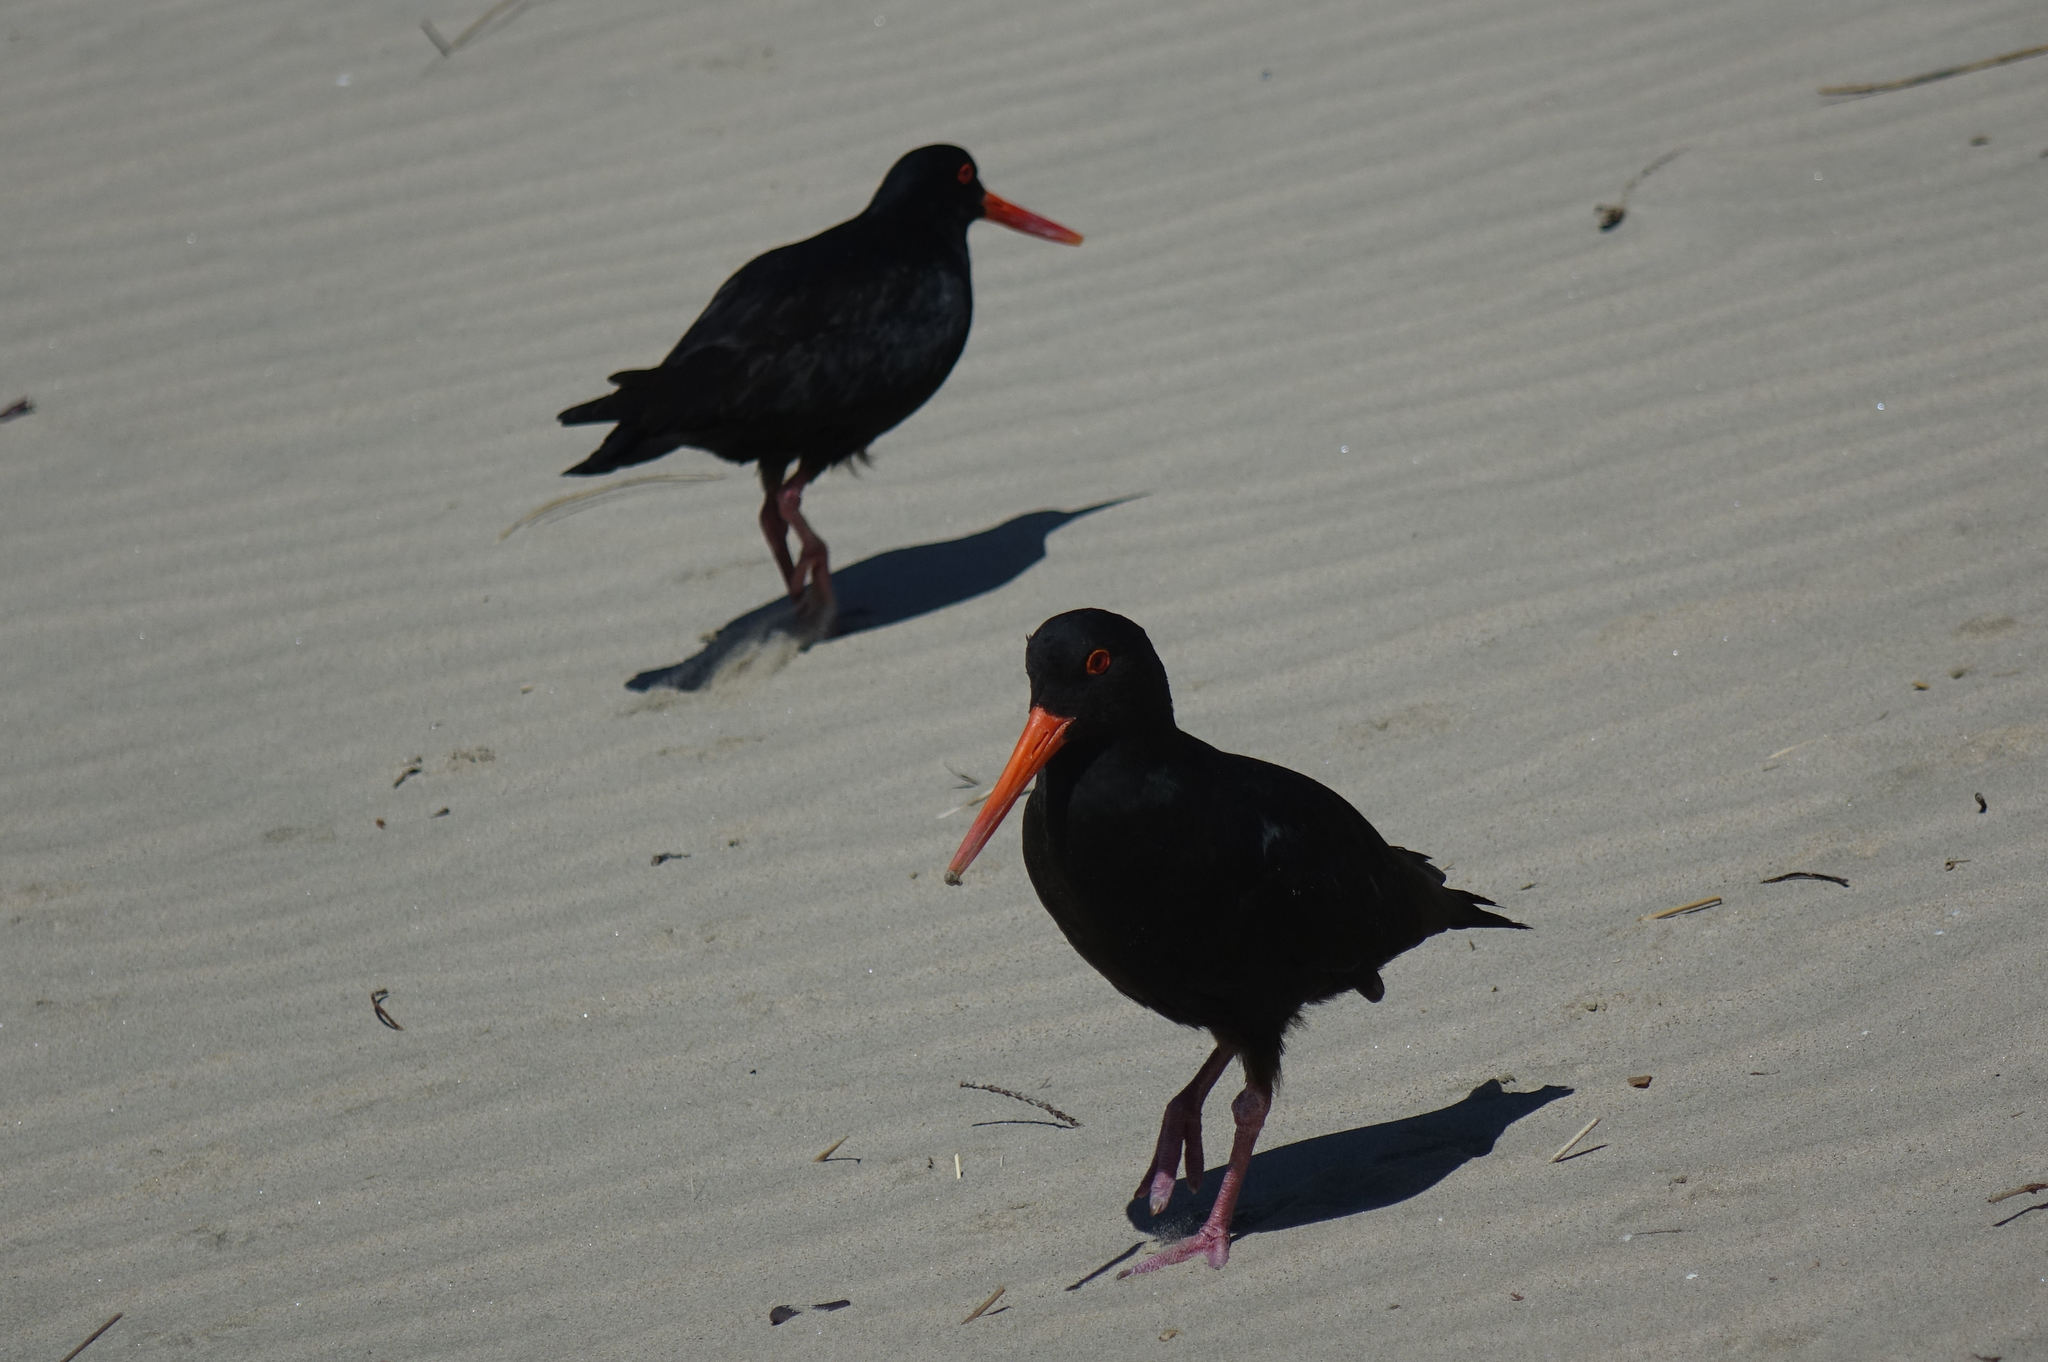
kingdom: Animalia
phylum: Chordata
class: Aves
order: Charadriiformes
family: Haematopodidae
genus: Haematopus
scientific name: Haematopus unicolor
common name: Variable oystercatcher
